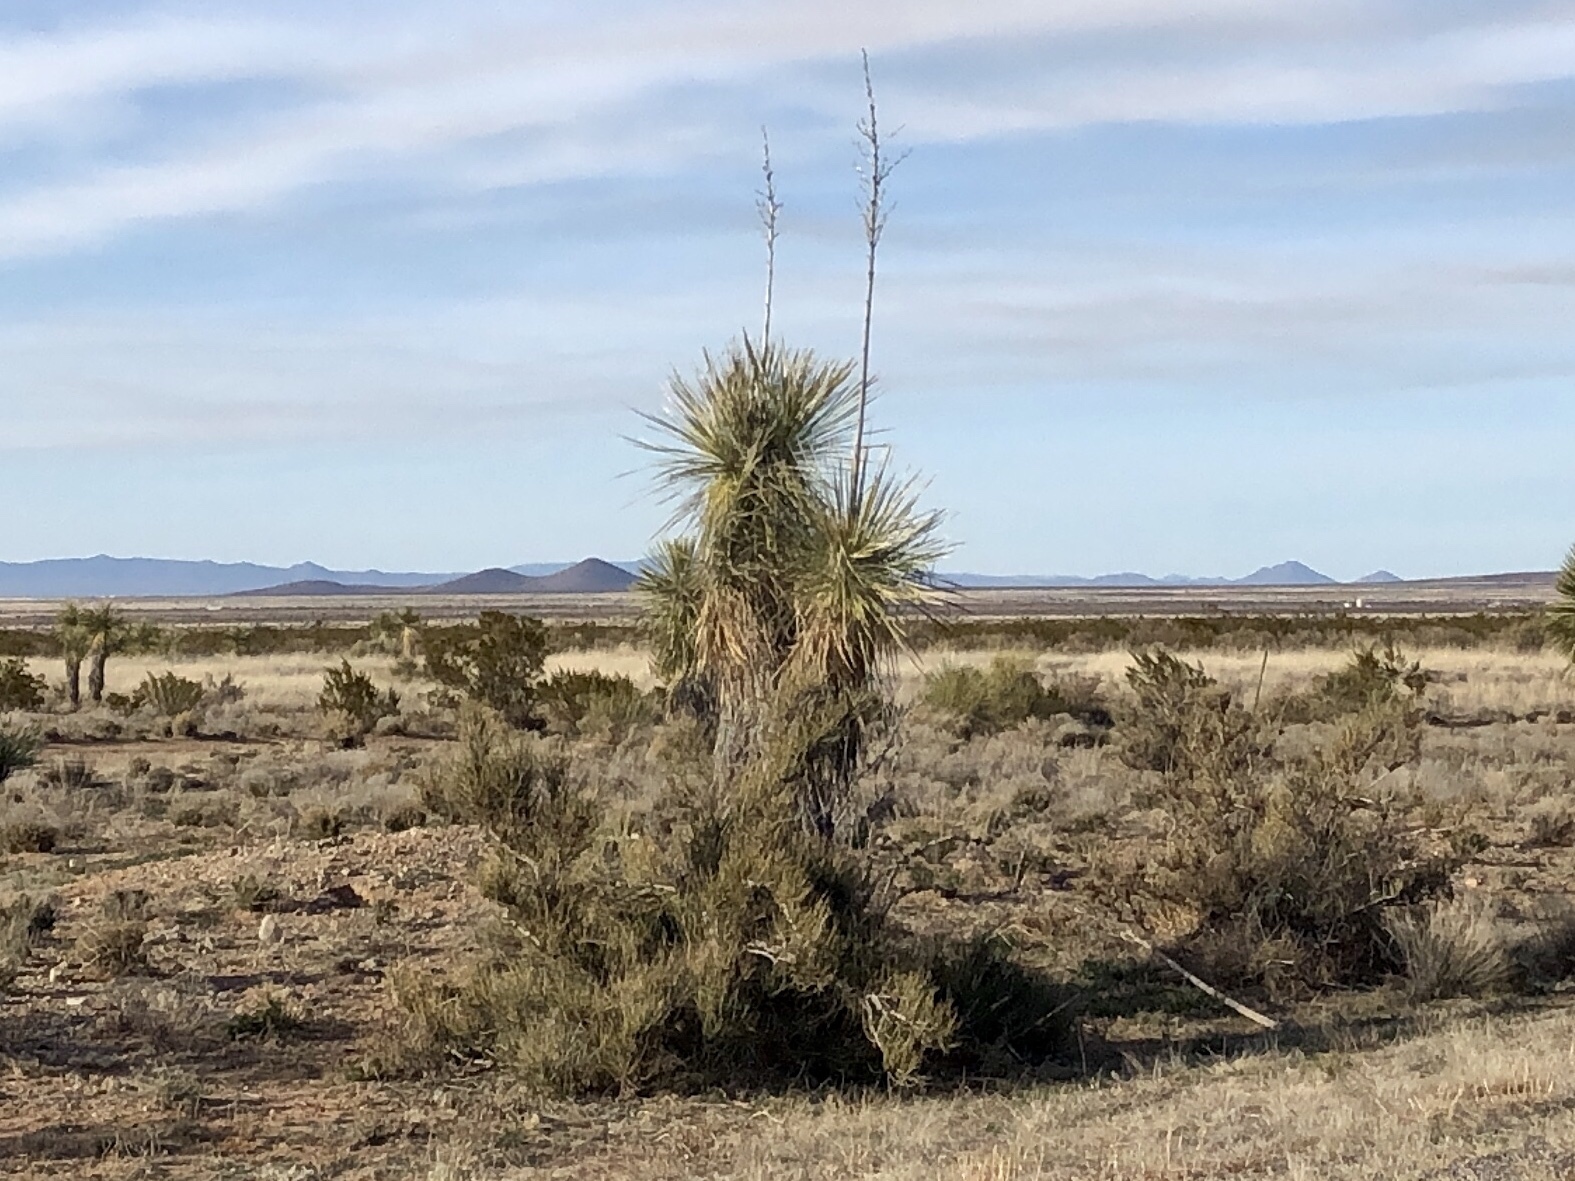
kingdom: Plantae
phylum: Tracheophyta
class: Liliopsida
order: Asparagales
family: Asparagaceae
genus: Yucca
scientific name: Yucca elata
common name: Palmella
